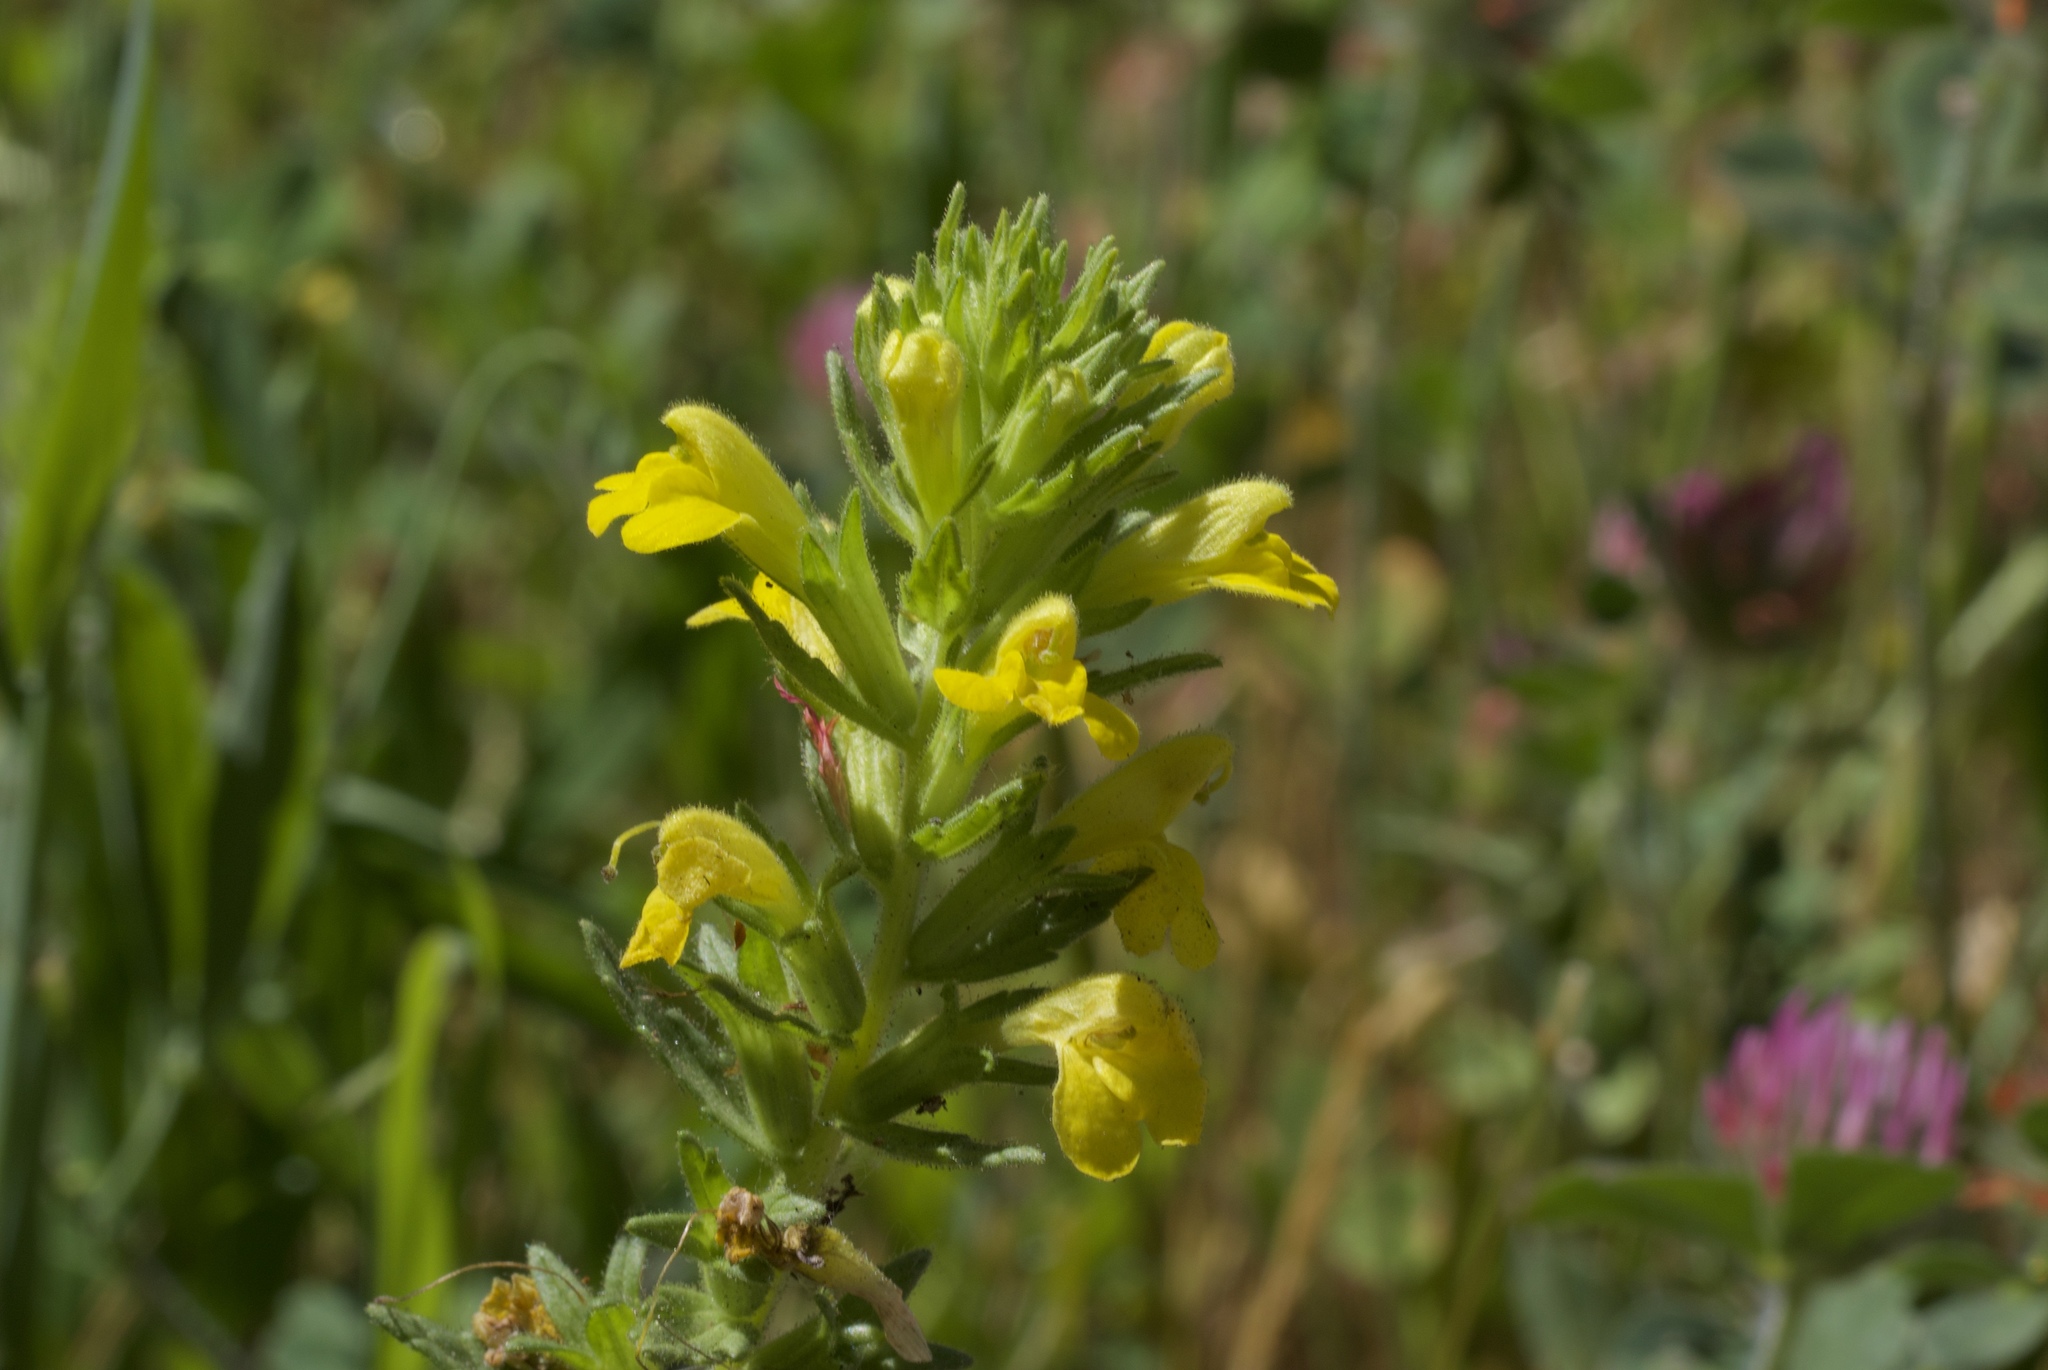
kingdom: Plantae
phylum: Tracheophyta
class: Magnoliopsida
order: Lamiales
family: Orobanchaceae
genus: Bellardia
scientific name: Bellardia viscosa
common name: Sticky parentucellia
